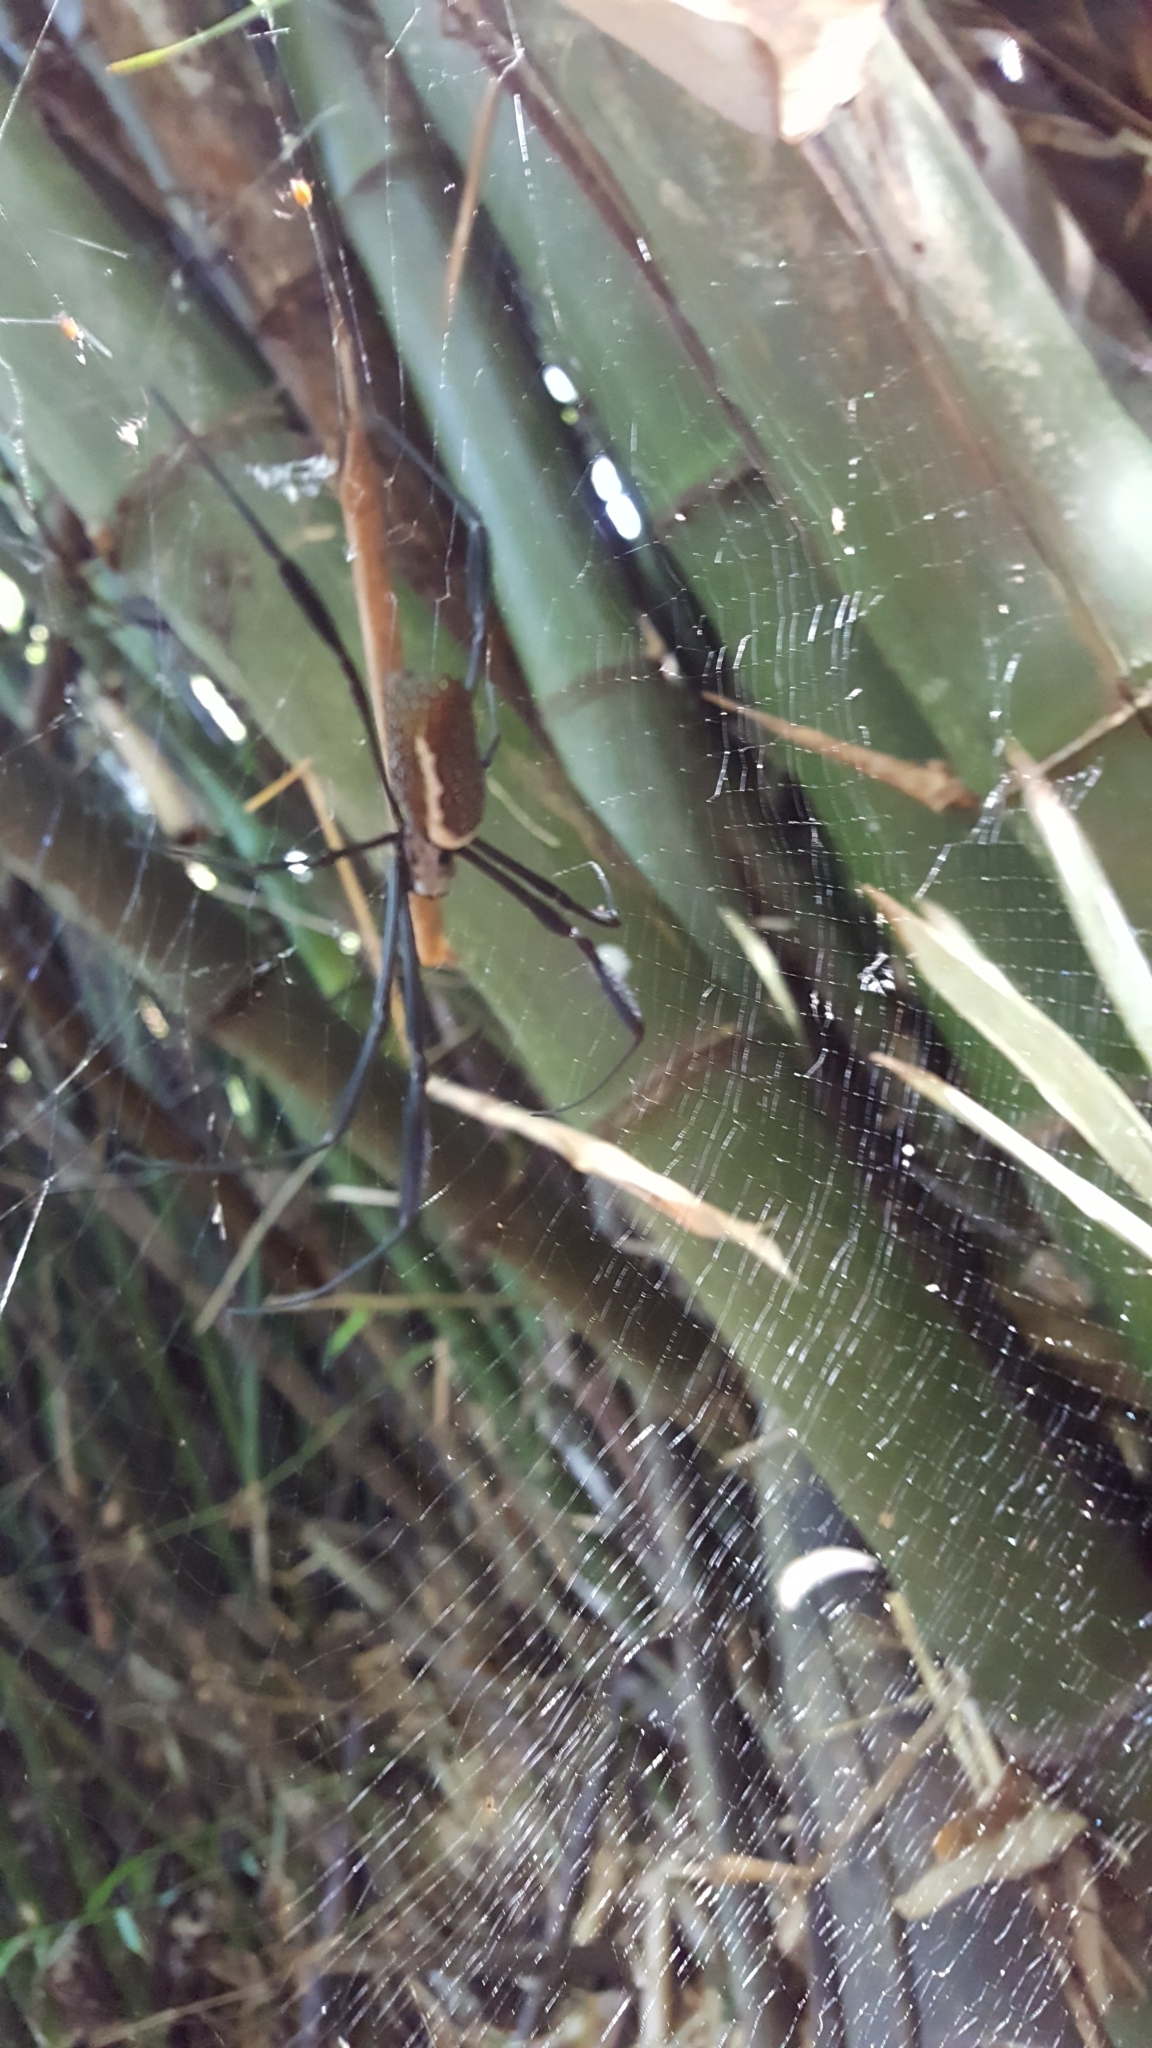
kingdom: Animalia
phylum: Arthropoda
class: Arachnida
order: Araneae
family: Araneidae
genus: Trichonephila
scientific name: Trichonephila clavipes
